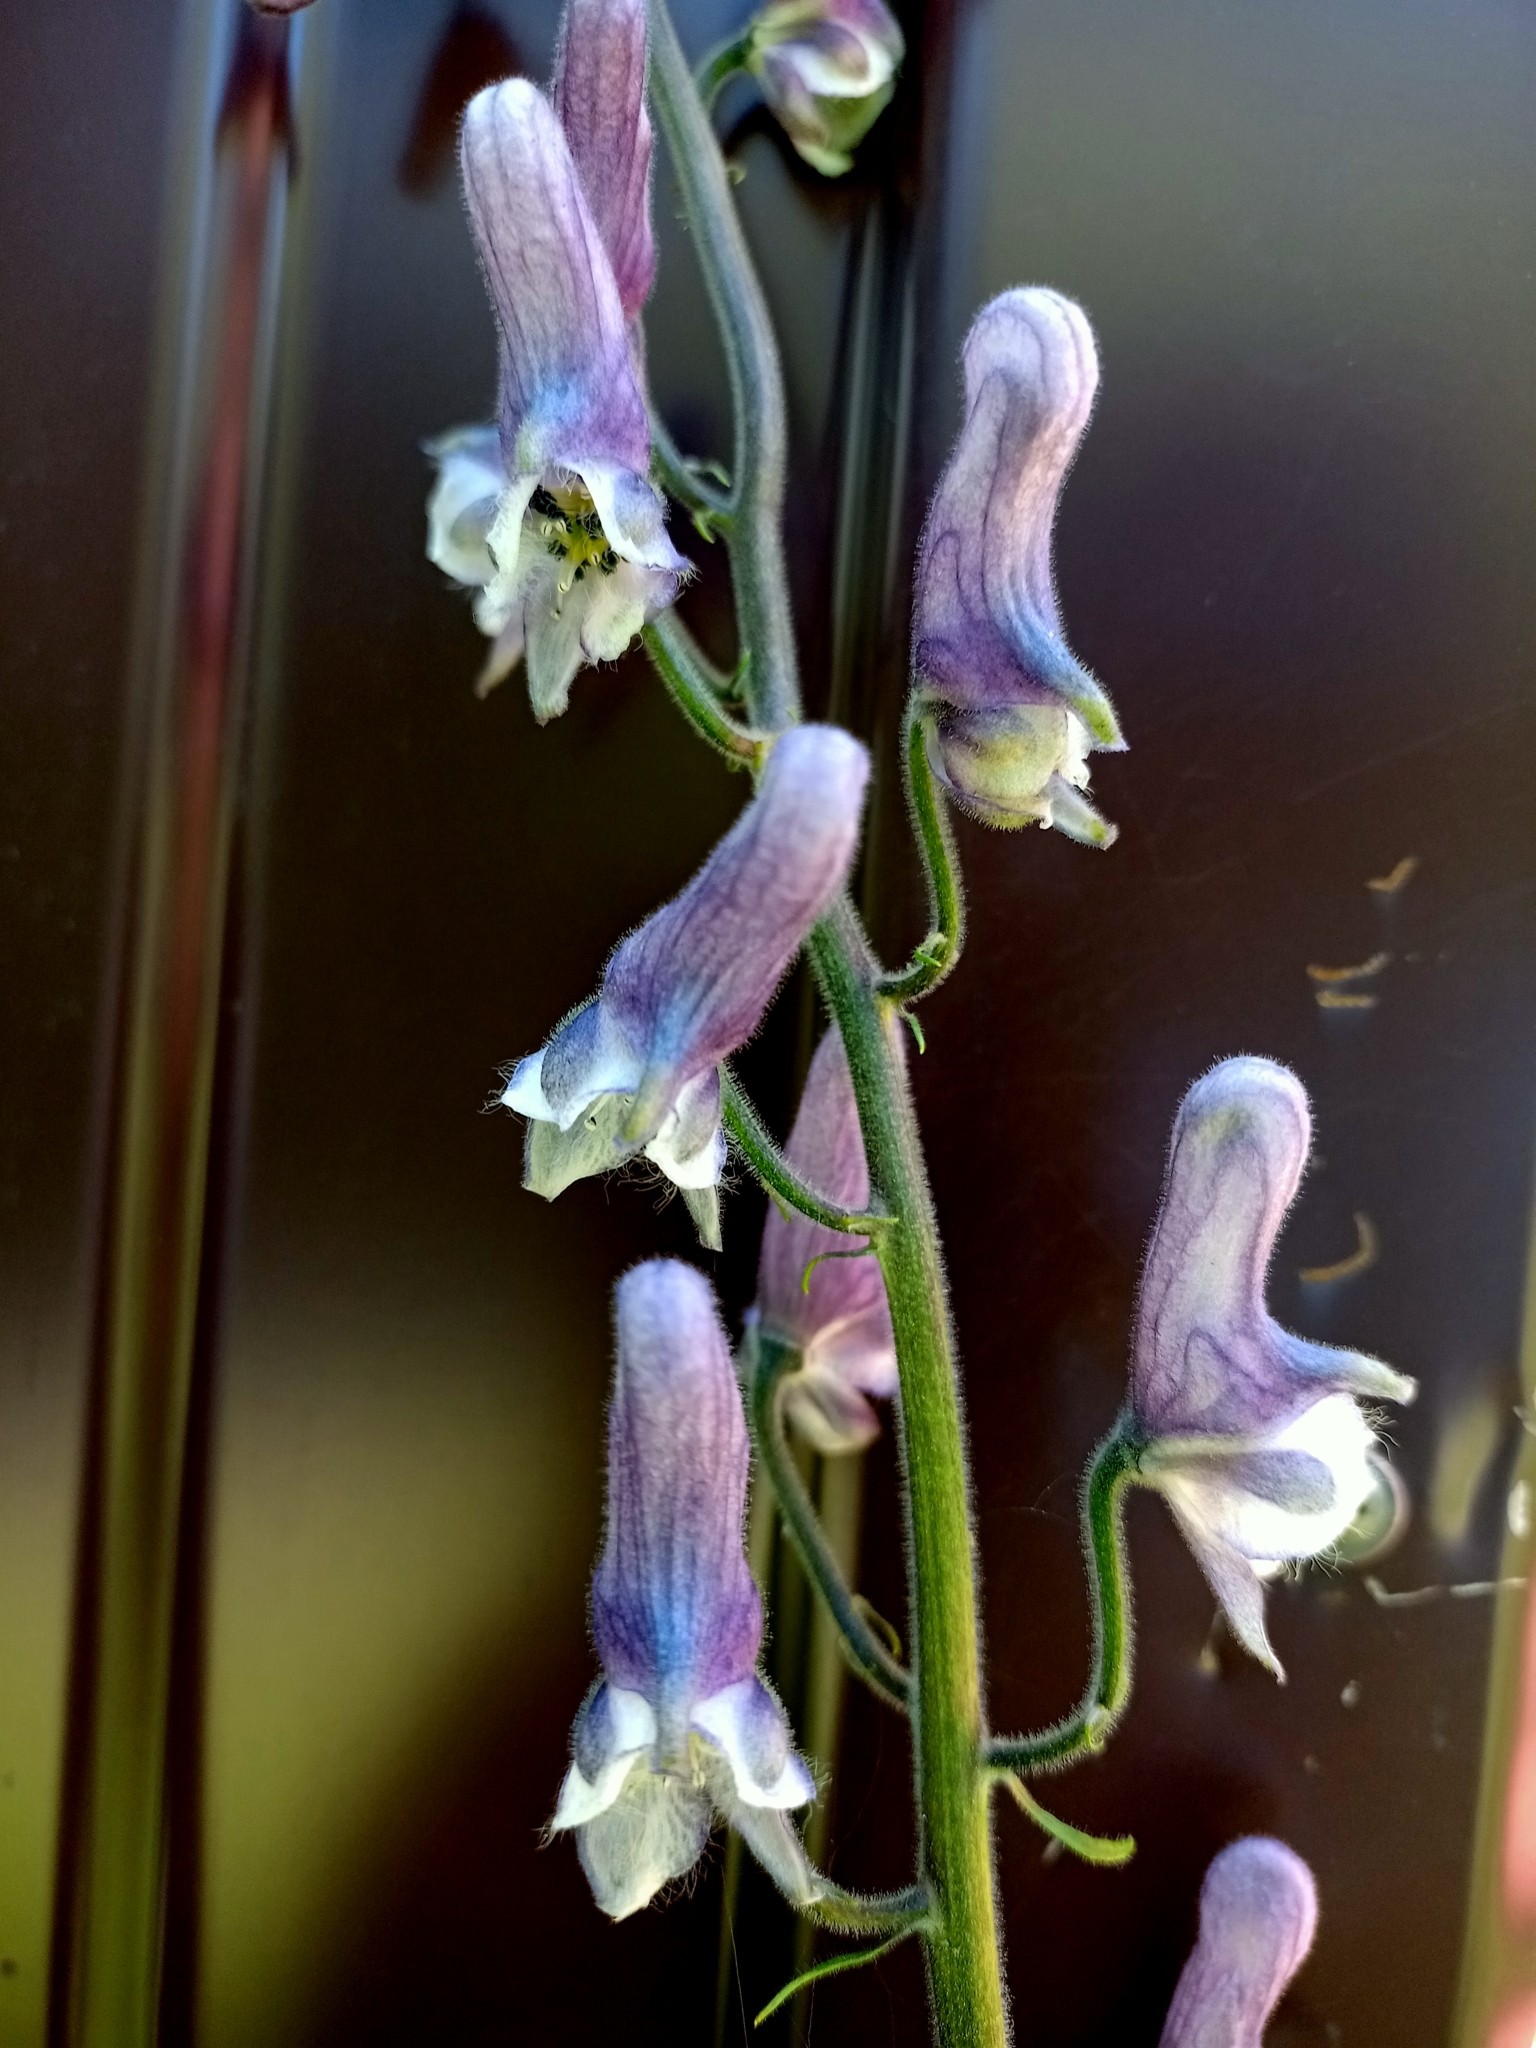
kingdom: Plantae
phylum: Tracheophyta
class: Magnoliopsida
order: Ranunculales
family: Ranunculaceae
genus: Aconitum
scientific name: Aconitum septentrionale
